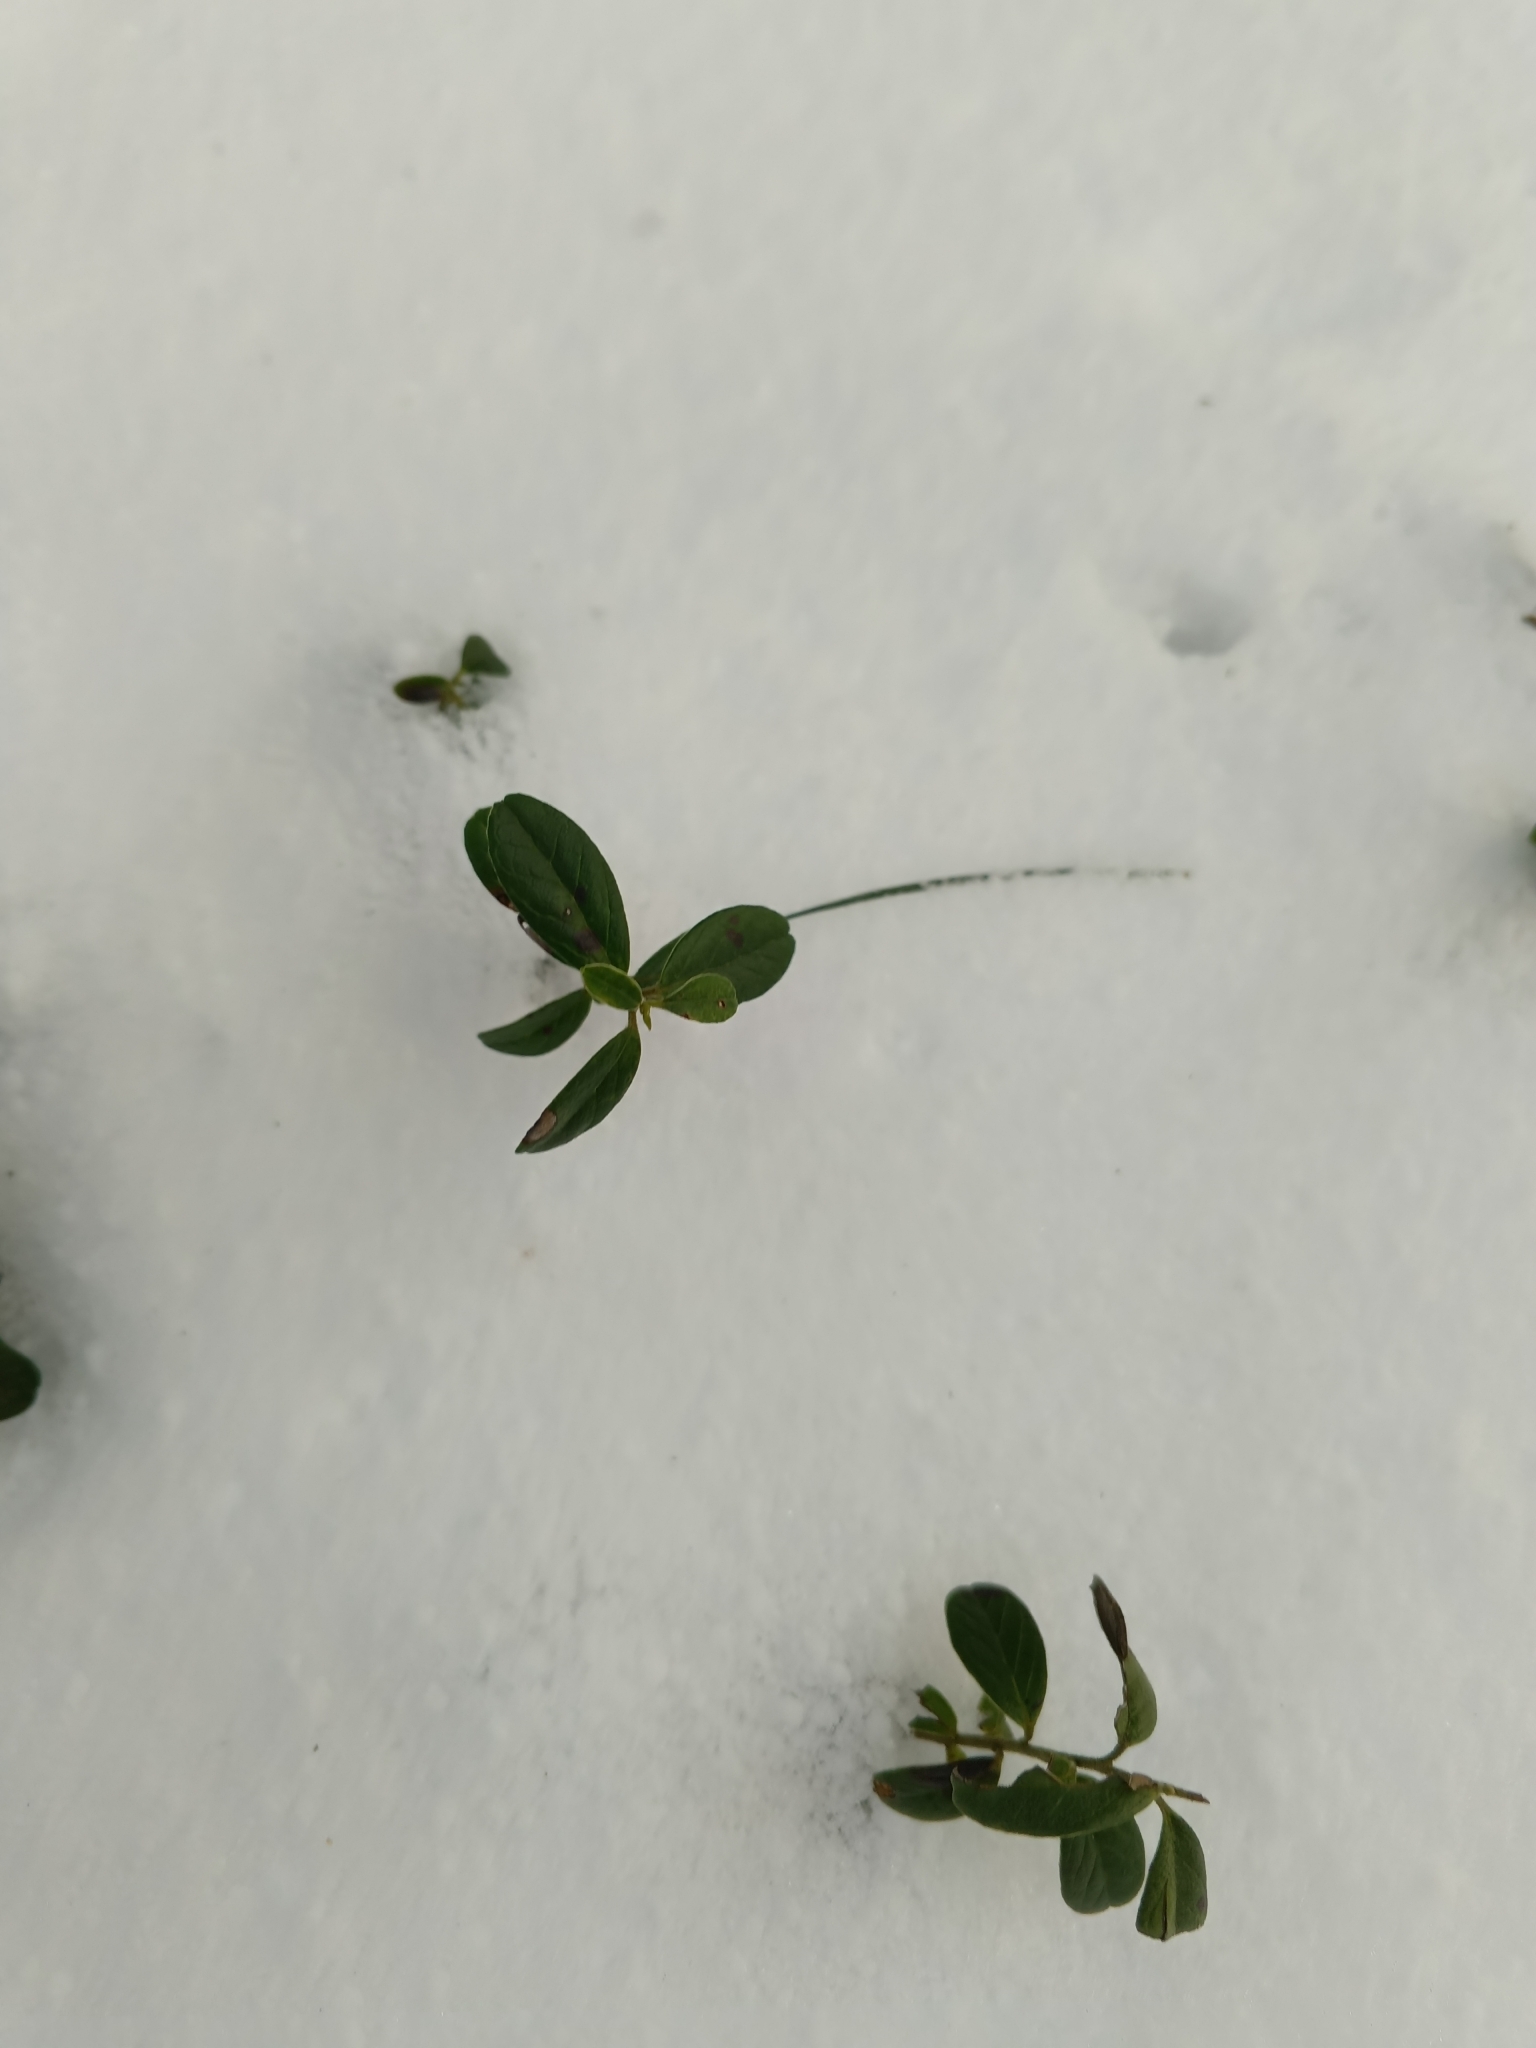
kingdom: Plantae
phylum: Tracheophyta
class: Magnoliopsida
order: Ericales
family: Ericaceae
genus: Vaccinium
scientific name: Vaccinium vitis-idaea
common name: Cowberry
